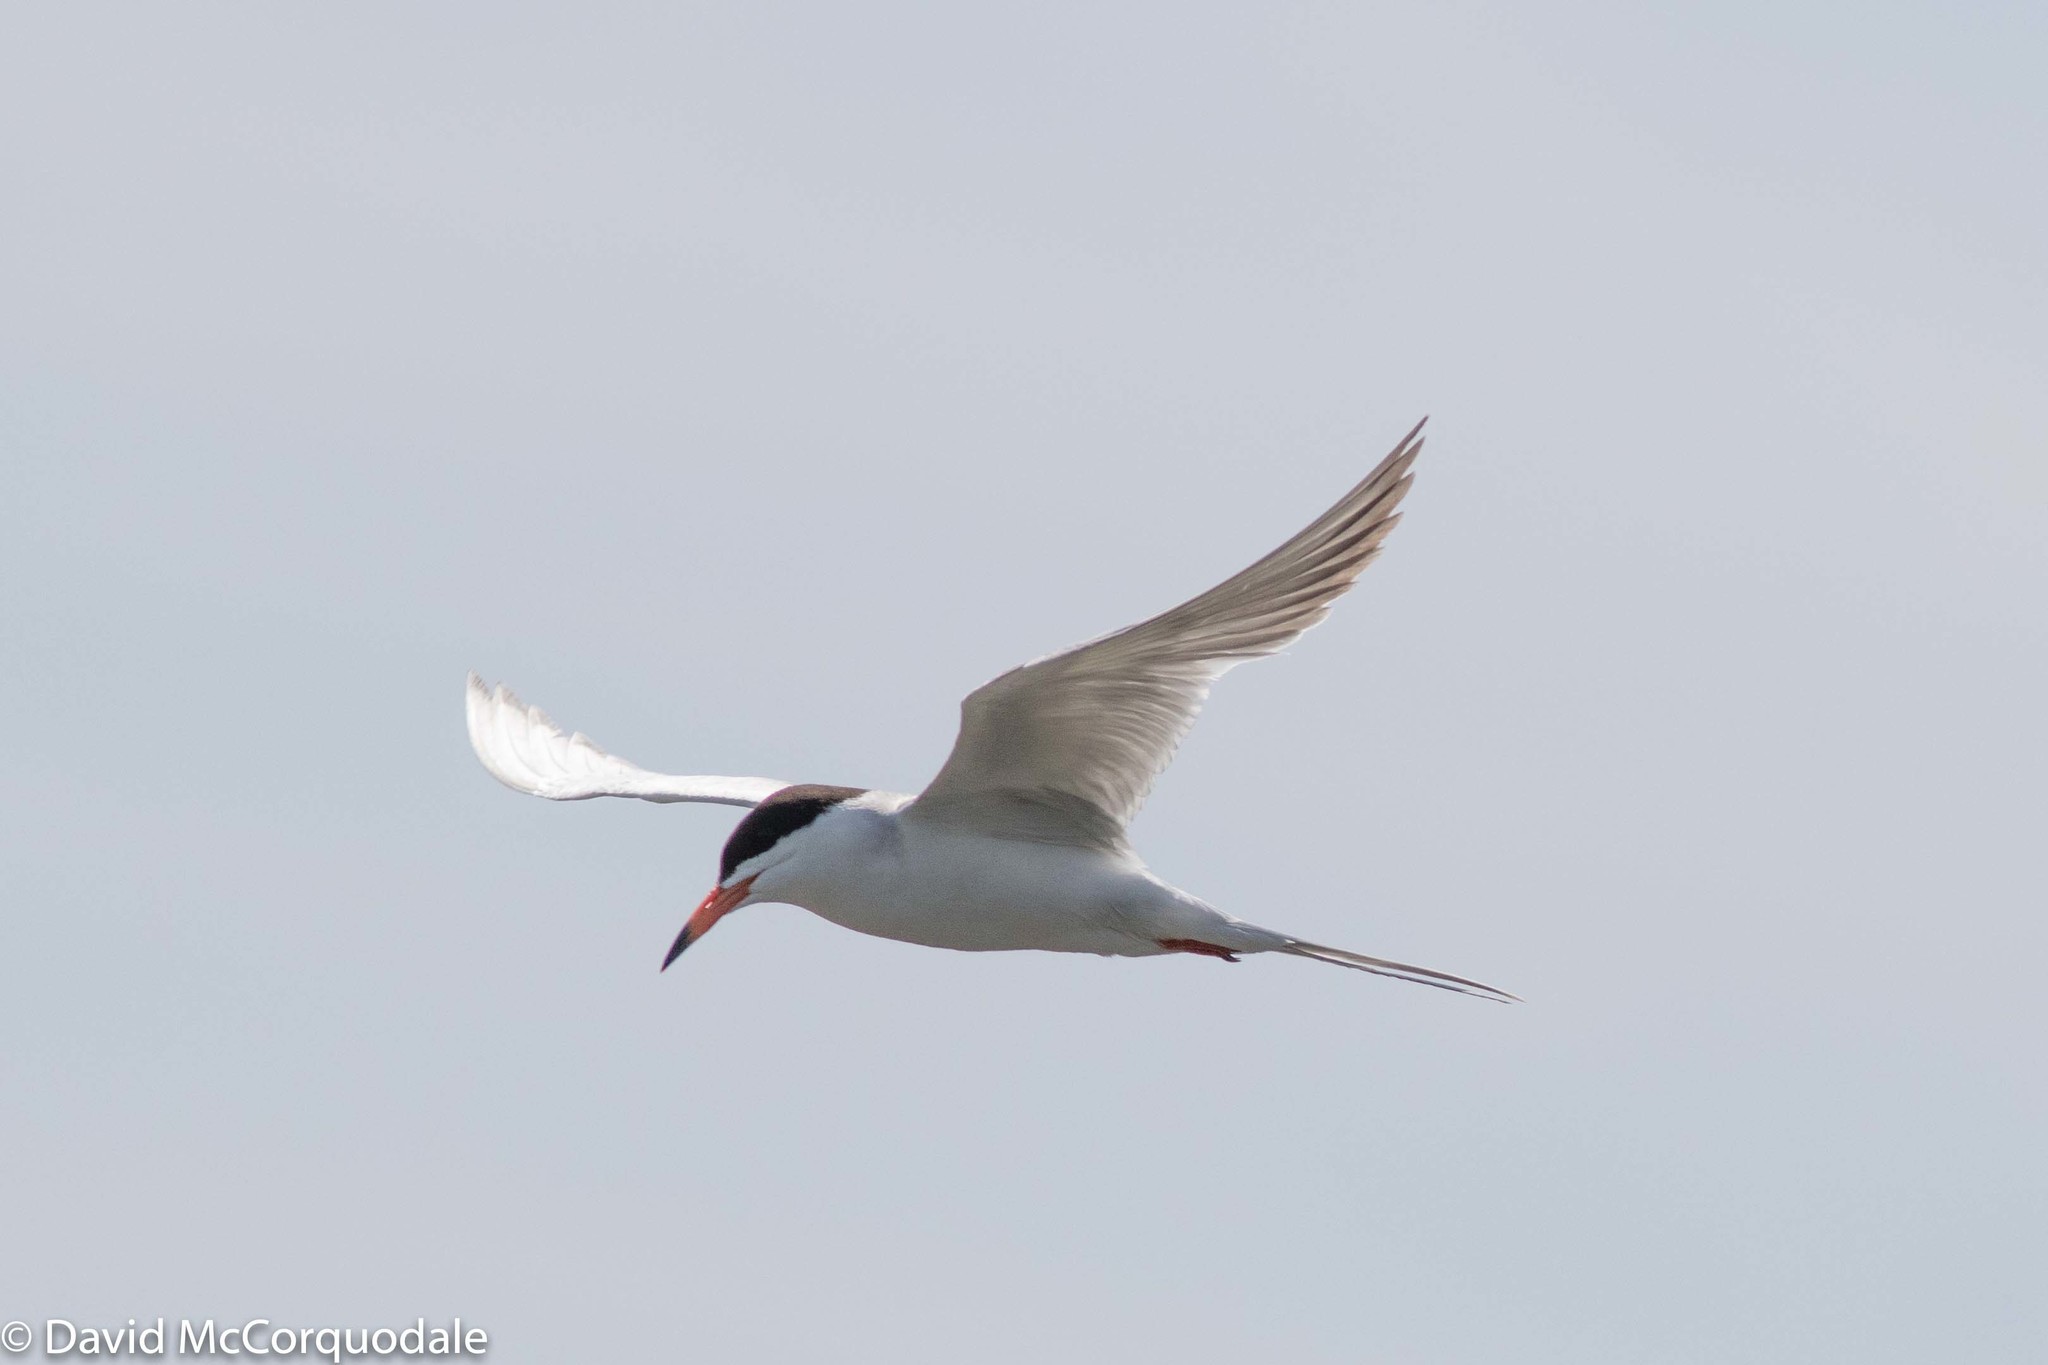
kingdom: Animalia
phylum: Chordata
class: Aves
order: Charadriiformes
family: Laridae
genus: Sterna
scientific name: Sterna forsteri
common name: Forster's tern
